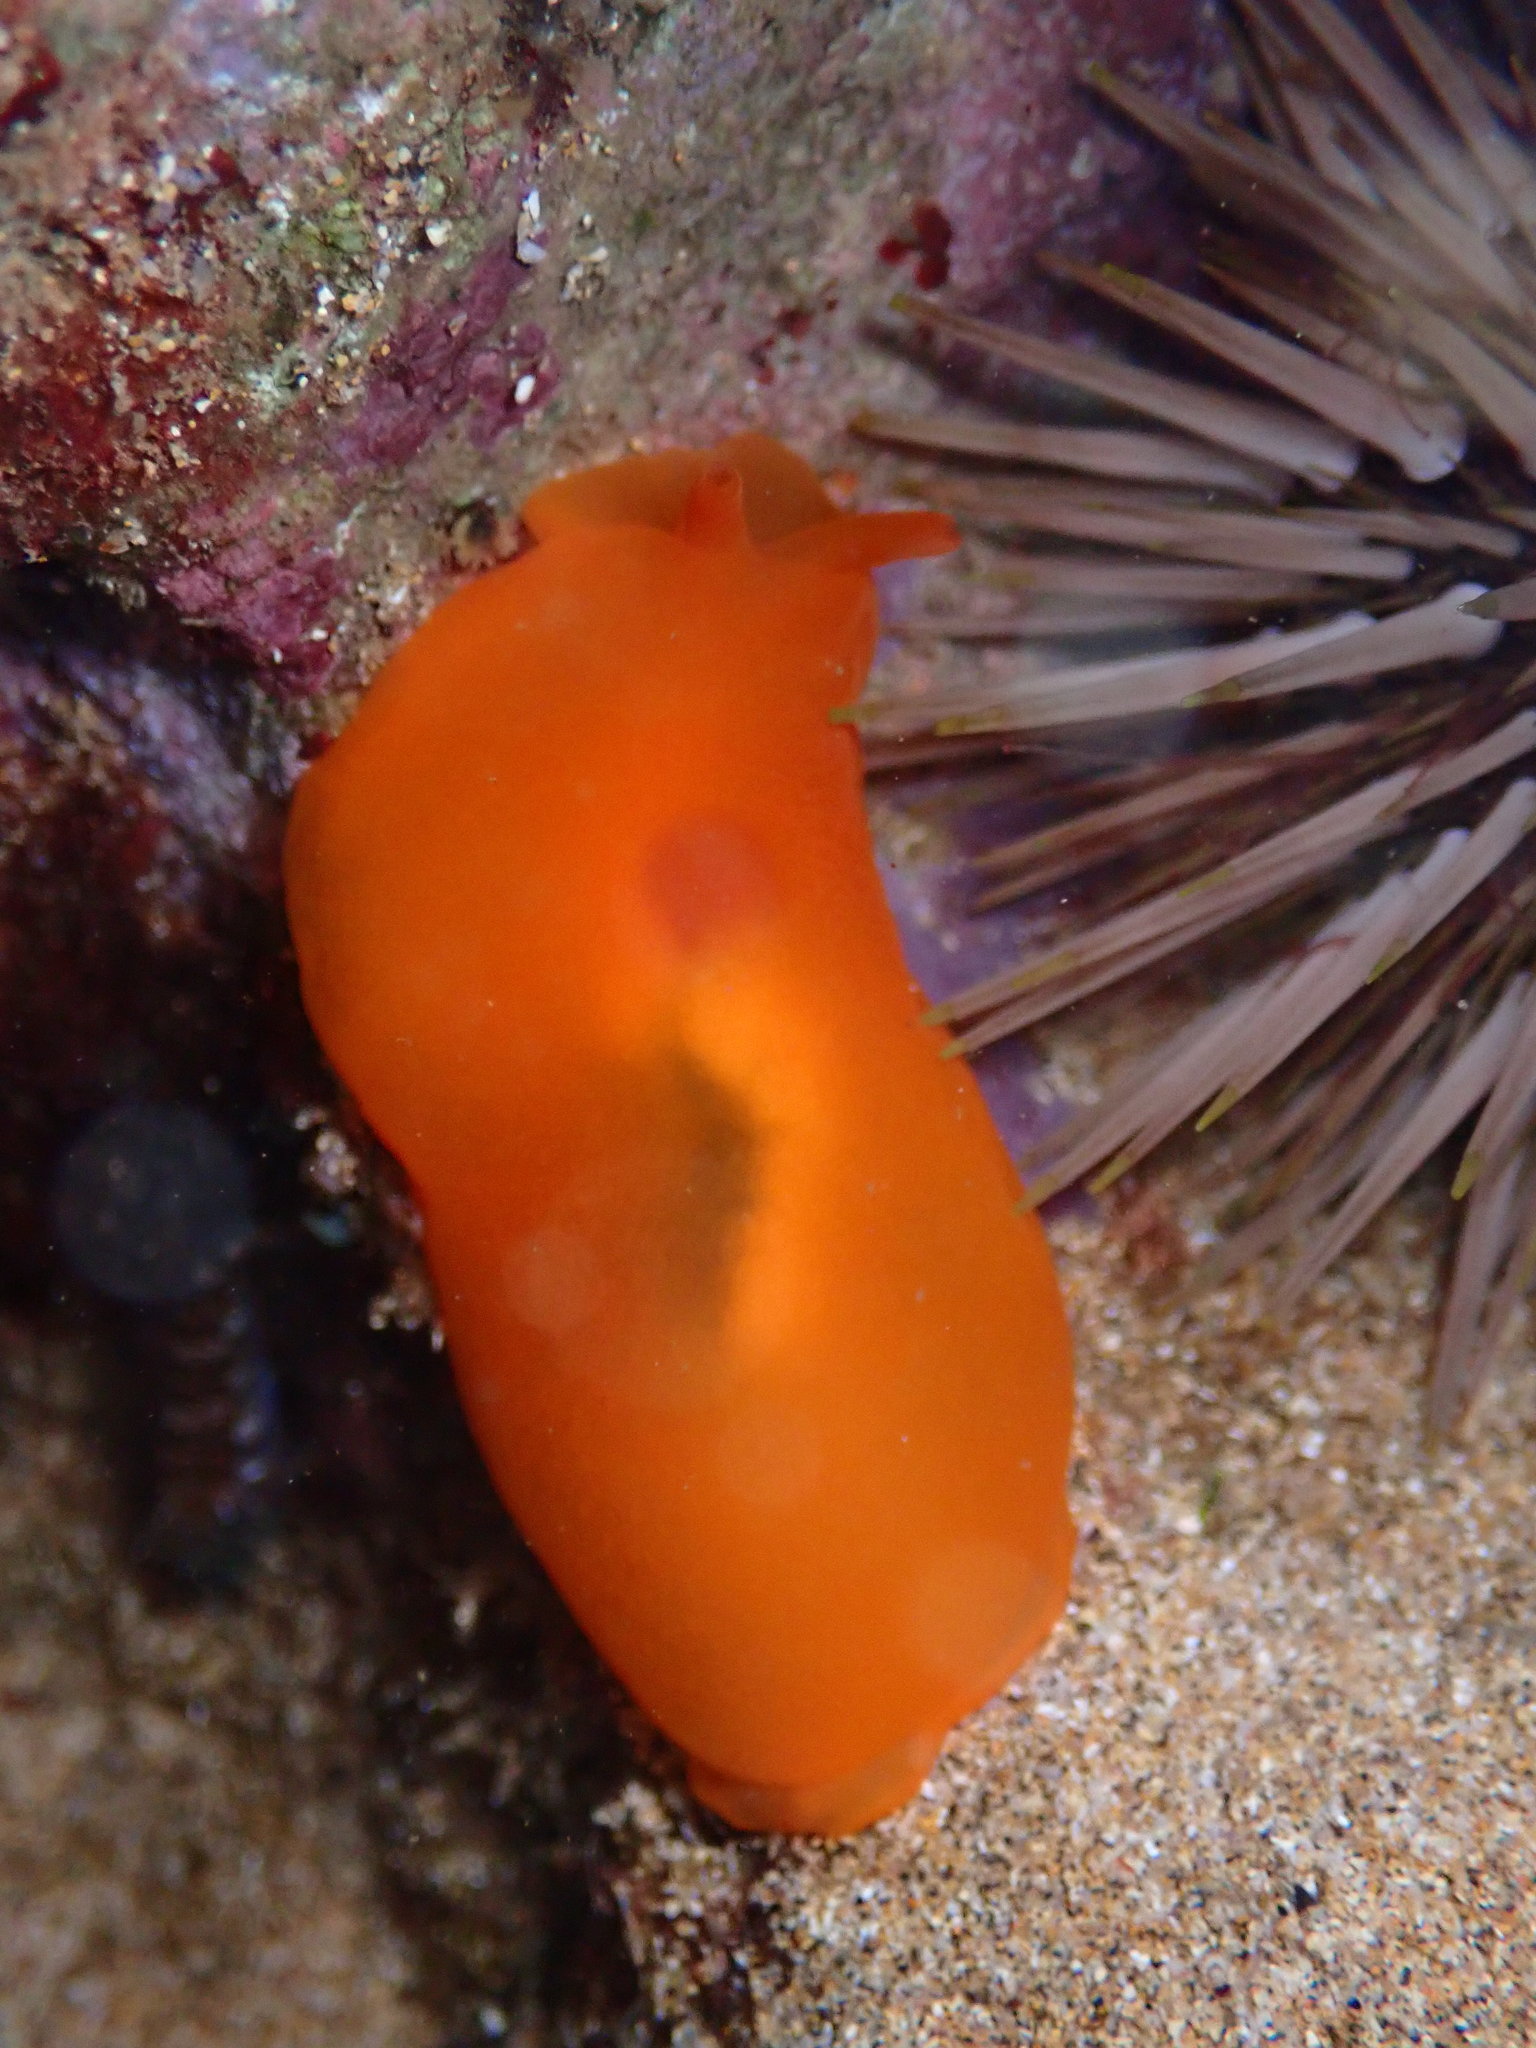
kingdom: Animalia
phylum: Mollusca
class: Gastropoda
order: Pleurobranchida
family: Pleurobranchidae
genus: Berthellina
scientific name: Berthellina delicata
